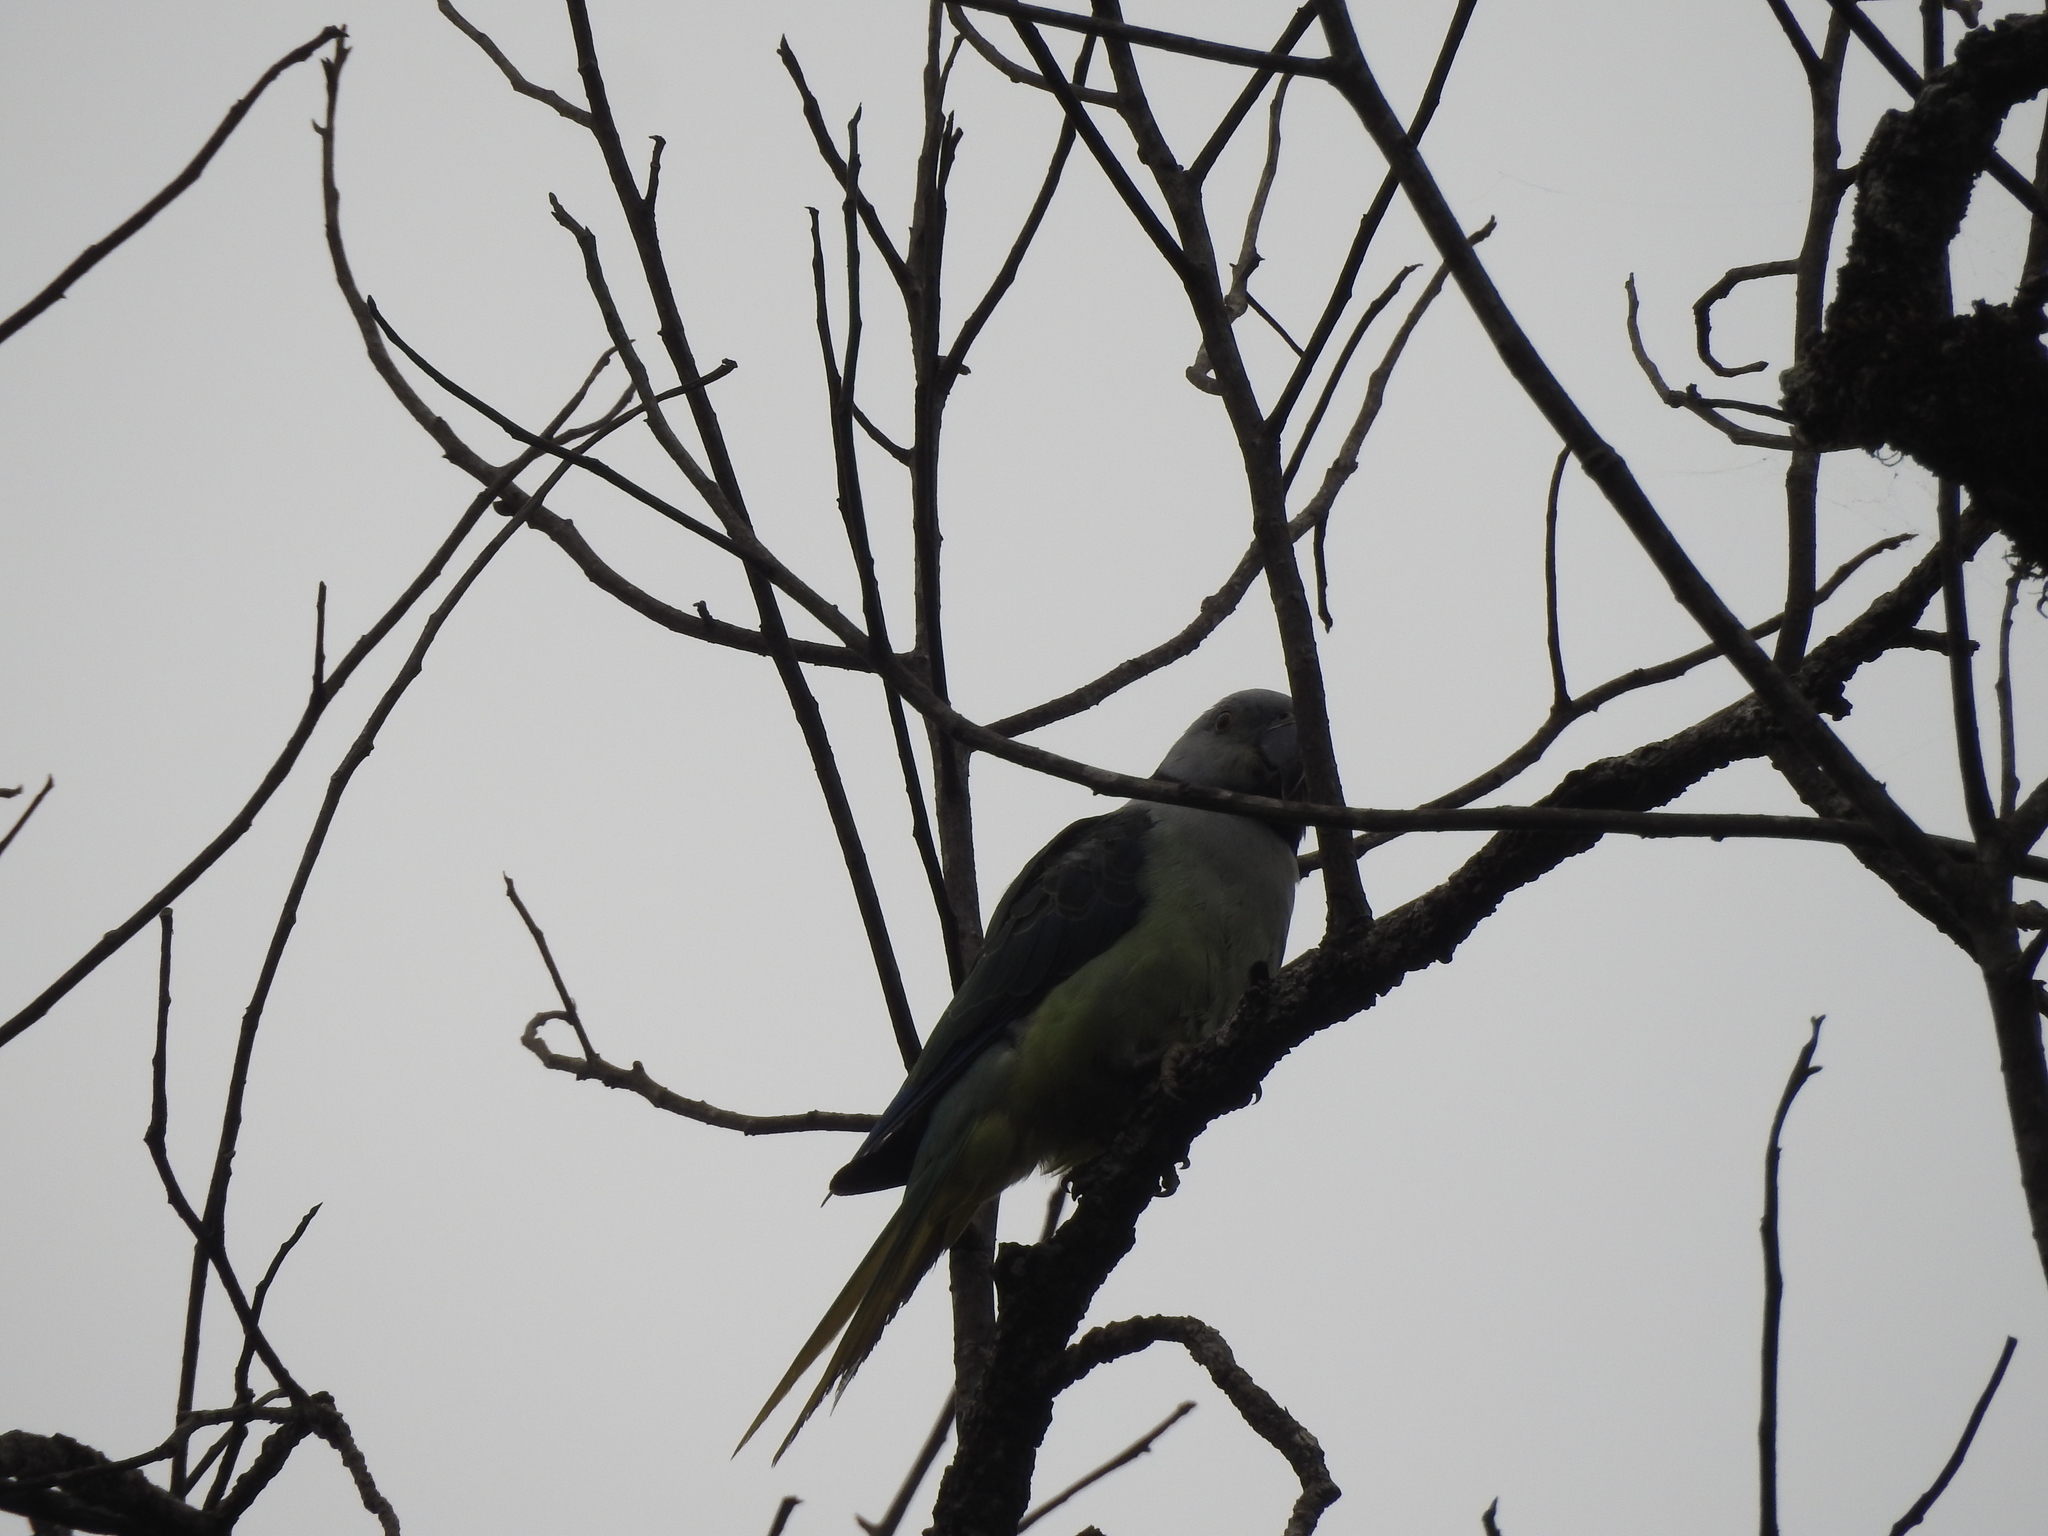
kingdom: Animalia
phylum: Chordata
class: Aves
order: Psittaciformes
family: Psittacidae
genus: Psittacula
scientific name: Psittacula columboides
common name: Blue-winged parakeet
